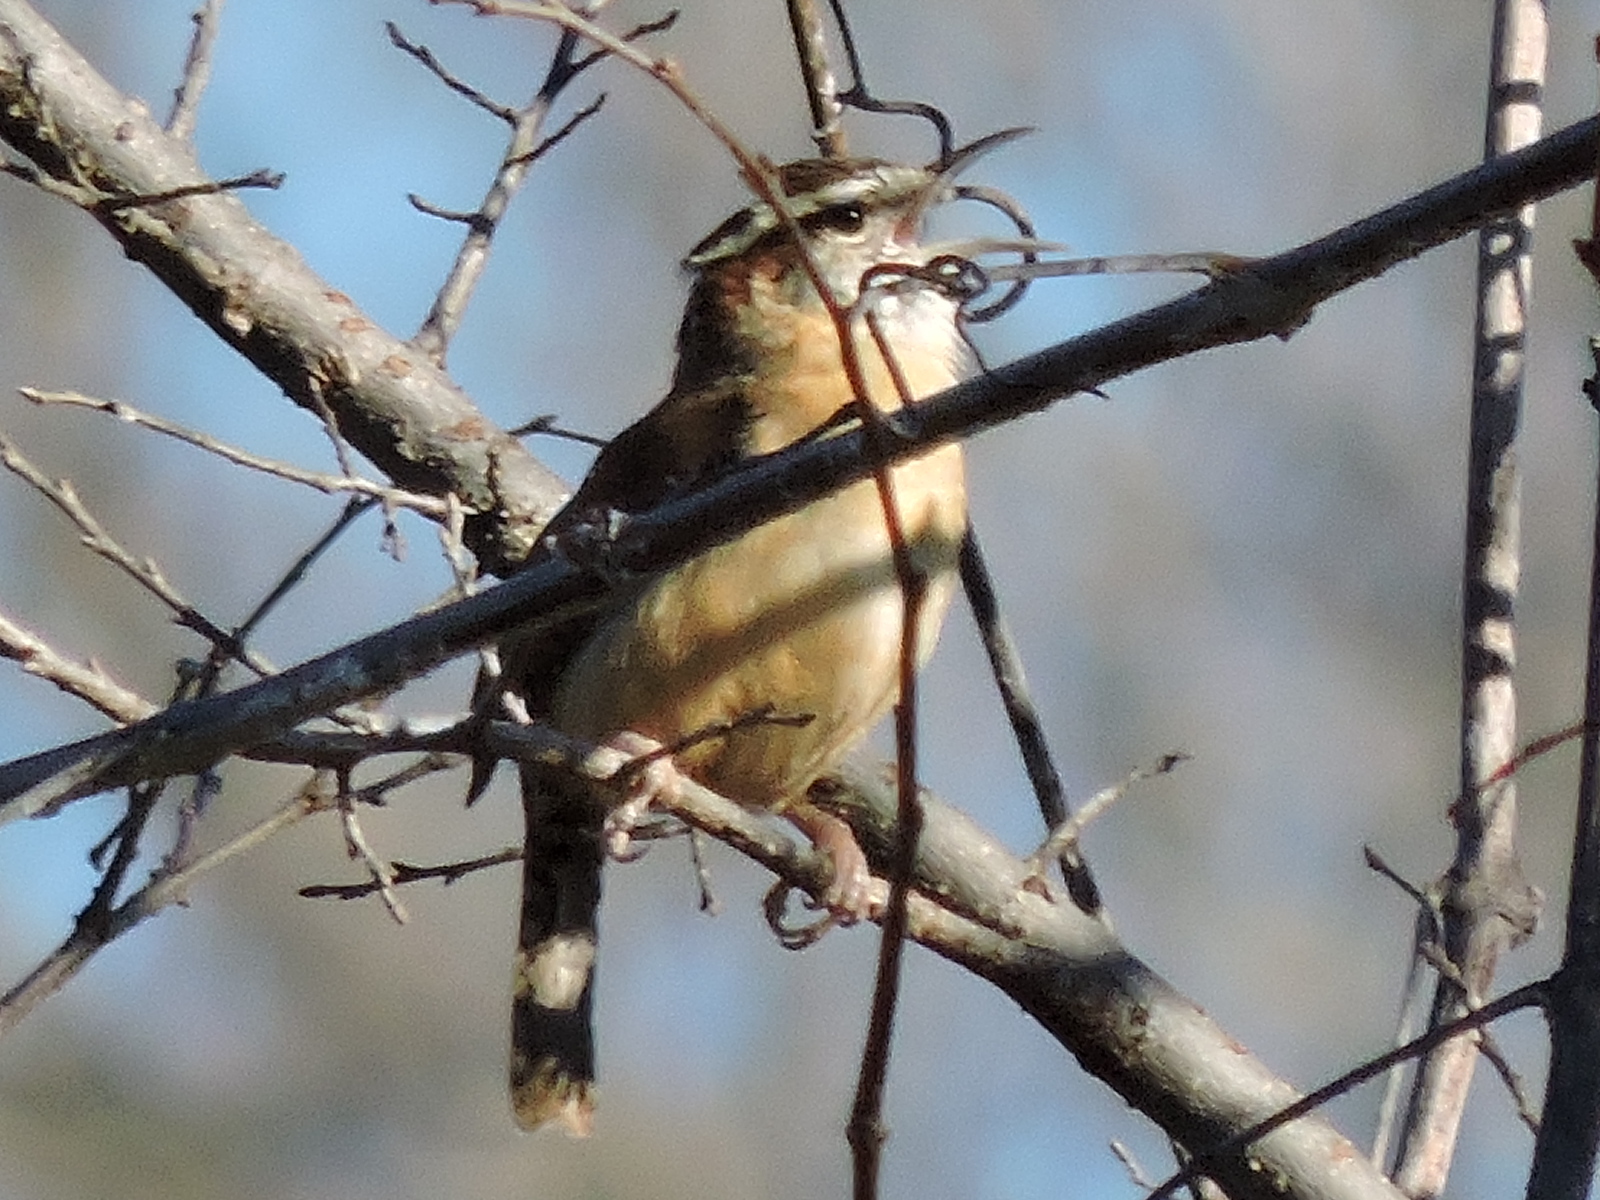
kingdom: Animalia
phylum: Chordata
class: Aves
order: Passeriformes
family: Troglodytidae
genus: Thryothorus
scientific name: Thryothorus ludovicianus
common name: Carolina wren
